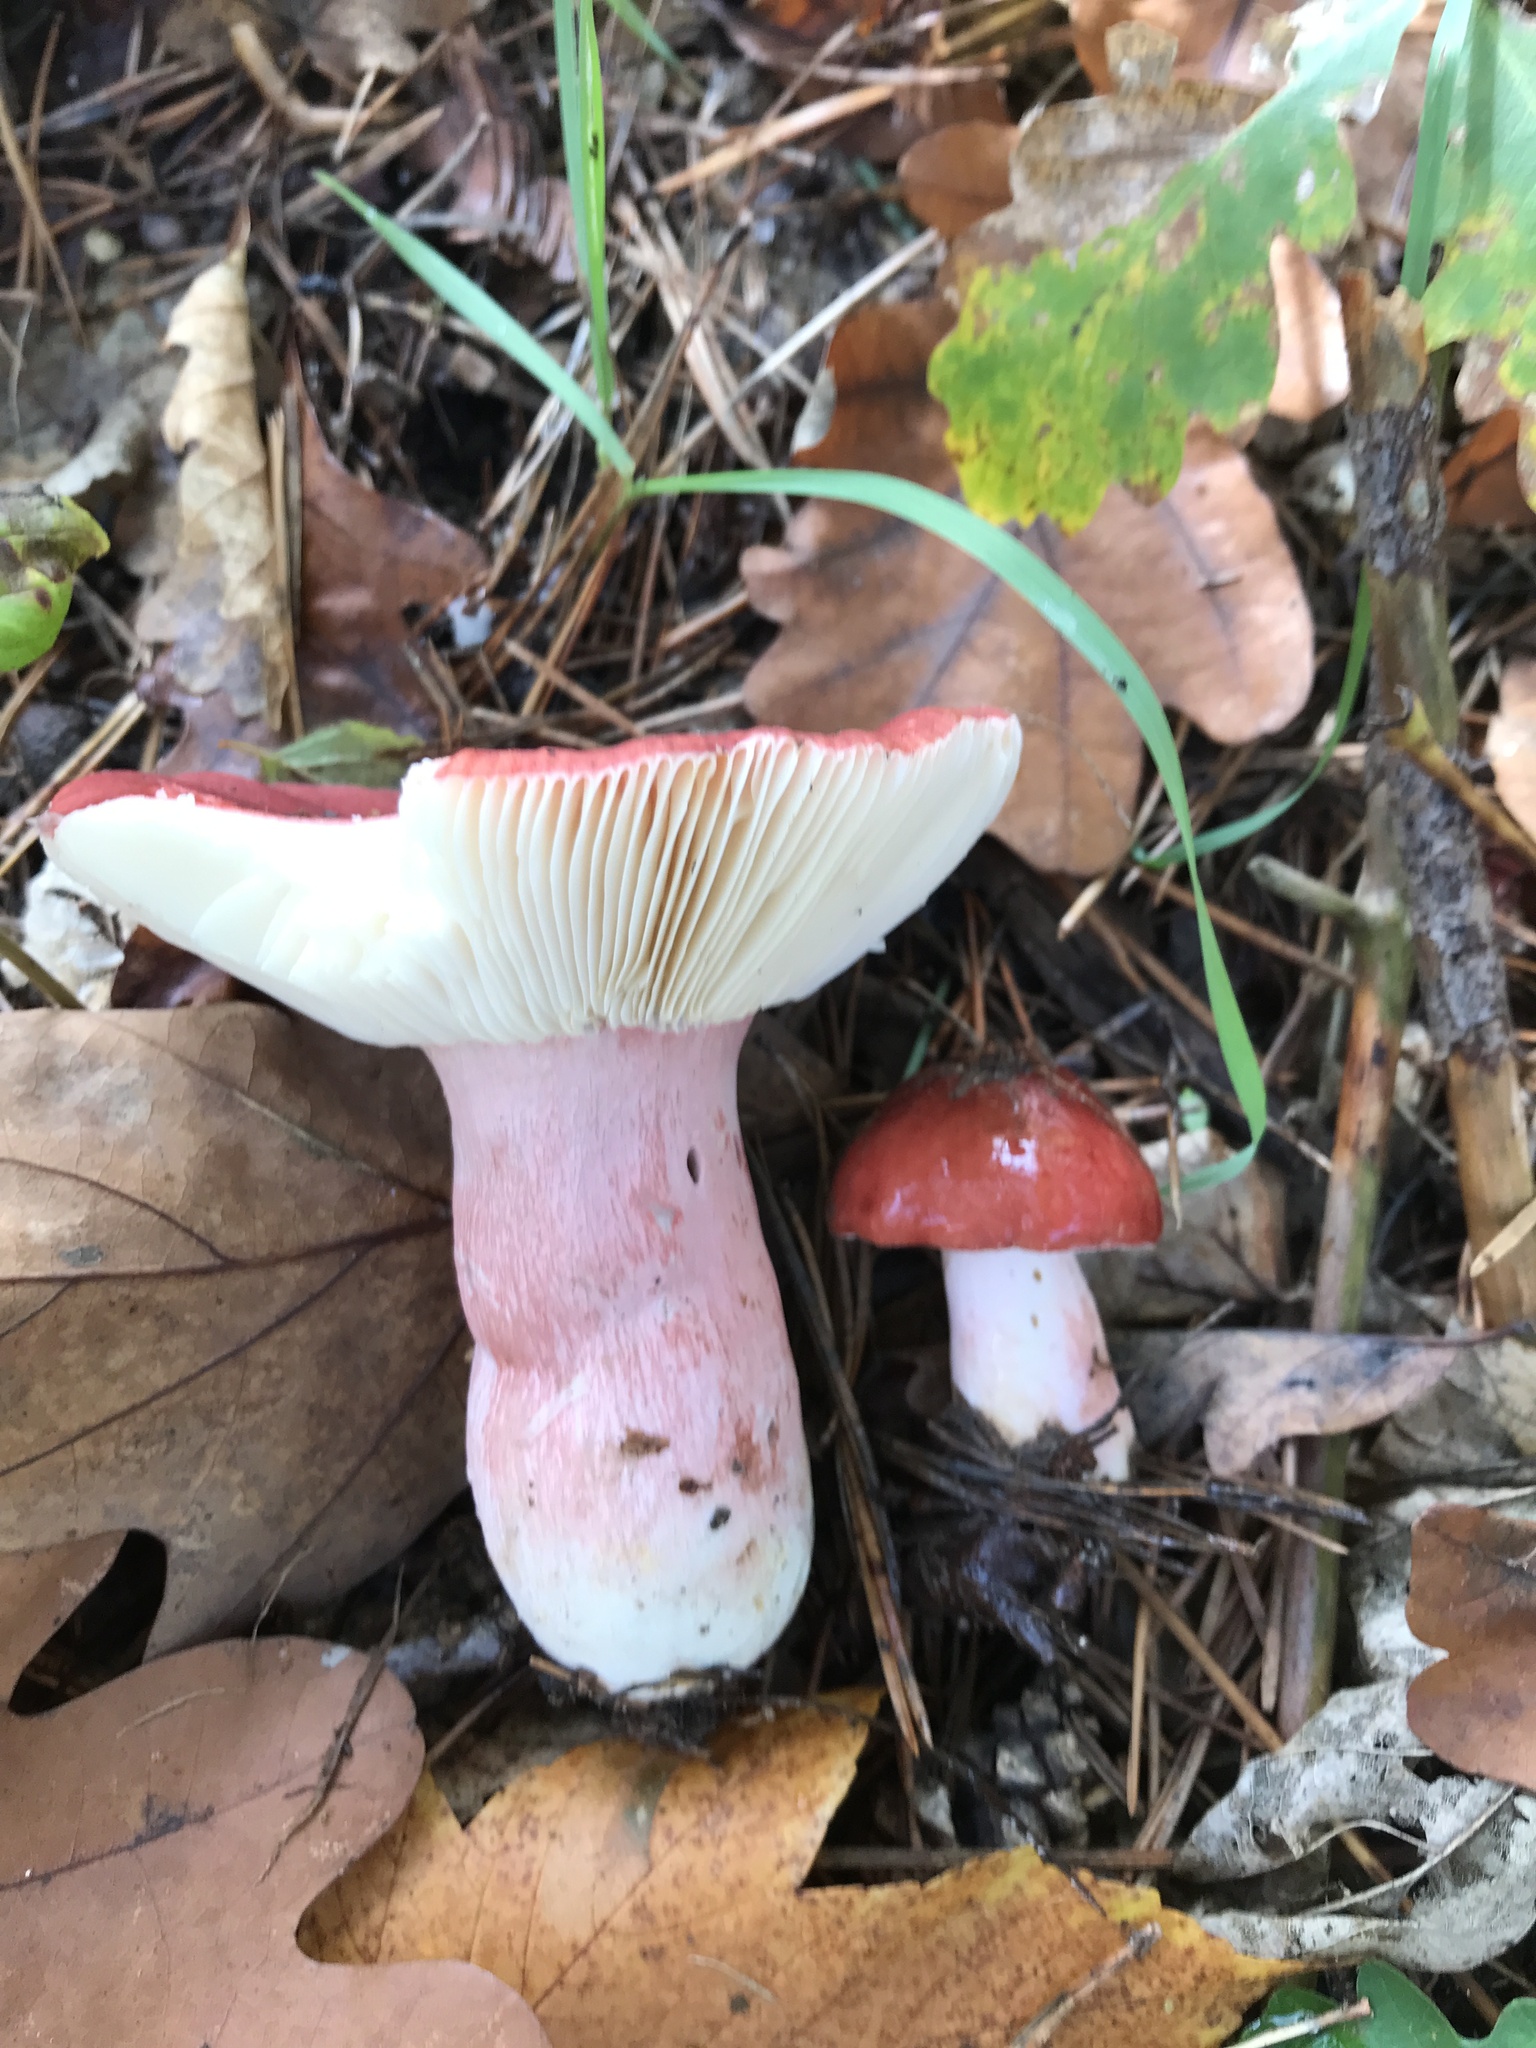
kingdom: Fungi
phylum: Basidiomycota
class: Agaricomycetes
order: Russulales
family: Russulaceae
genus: Russula
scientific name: Russula sanguinea
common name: Bloody brittlegill
